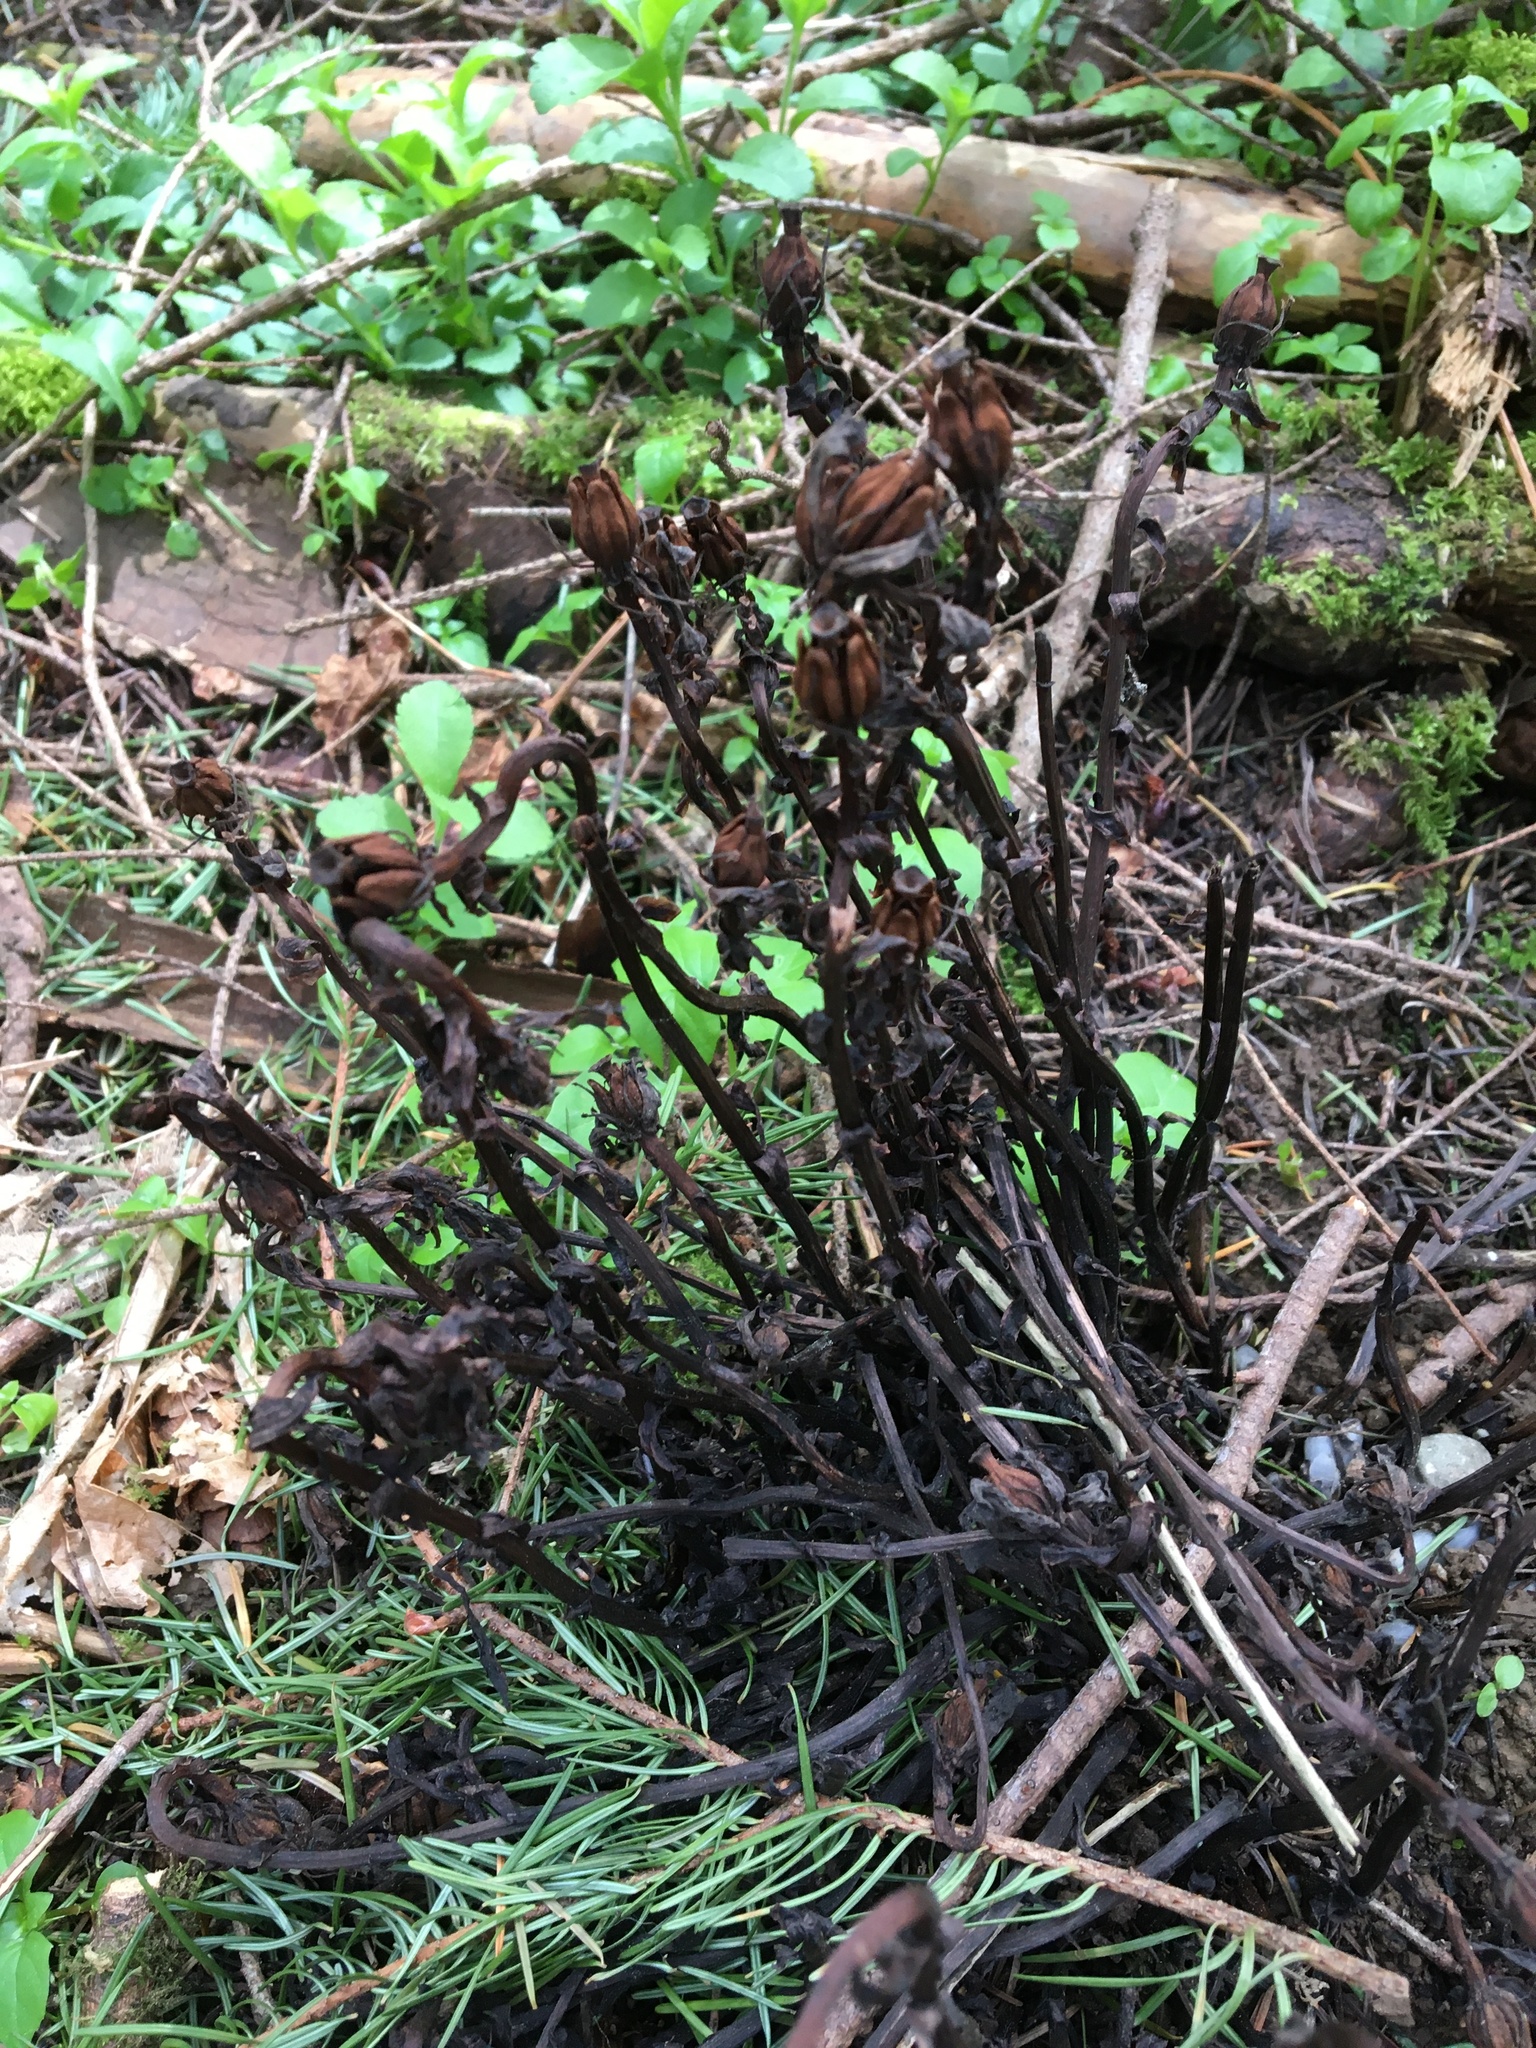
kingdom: Plantae
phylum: Tracheophyta
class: Magnoliopsida
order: Ericales
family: Ericaceae
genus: Monotropa
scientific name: Monotropa uniflora
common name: Convulsion root
